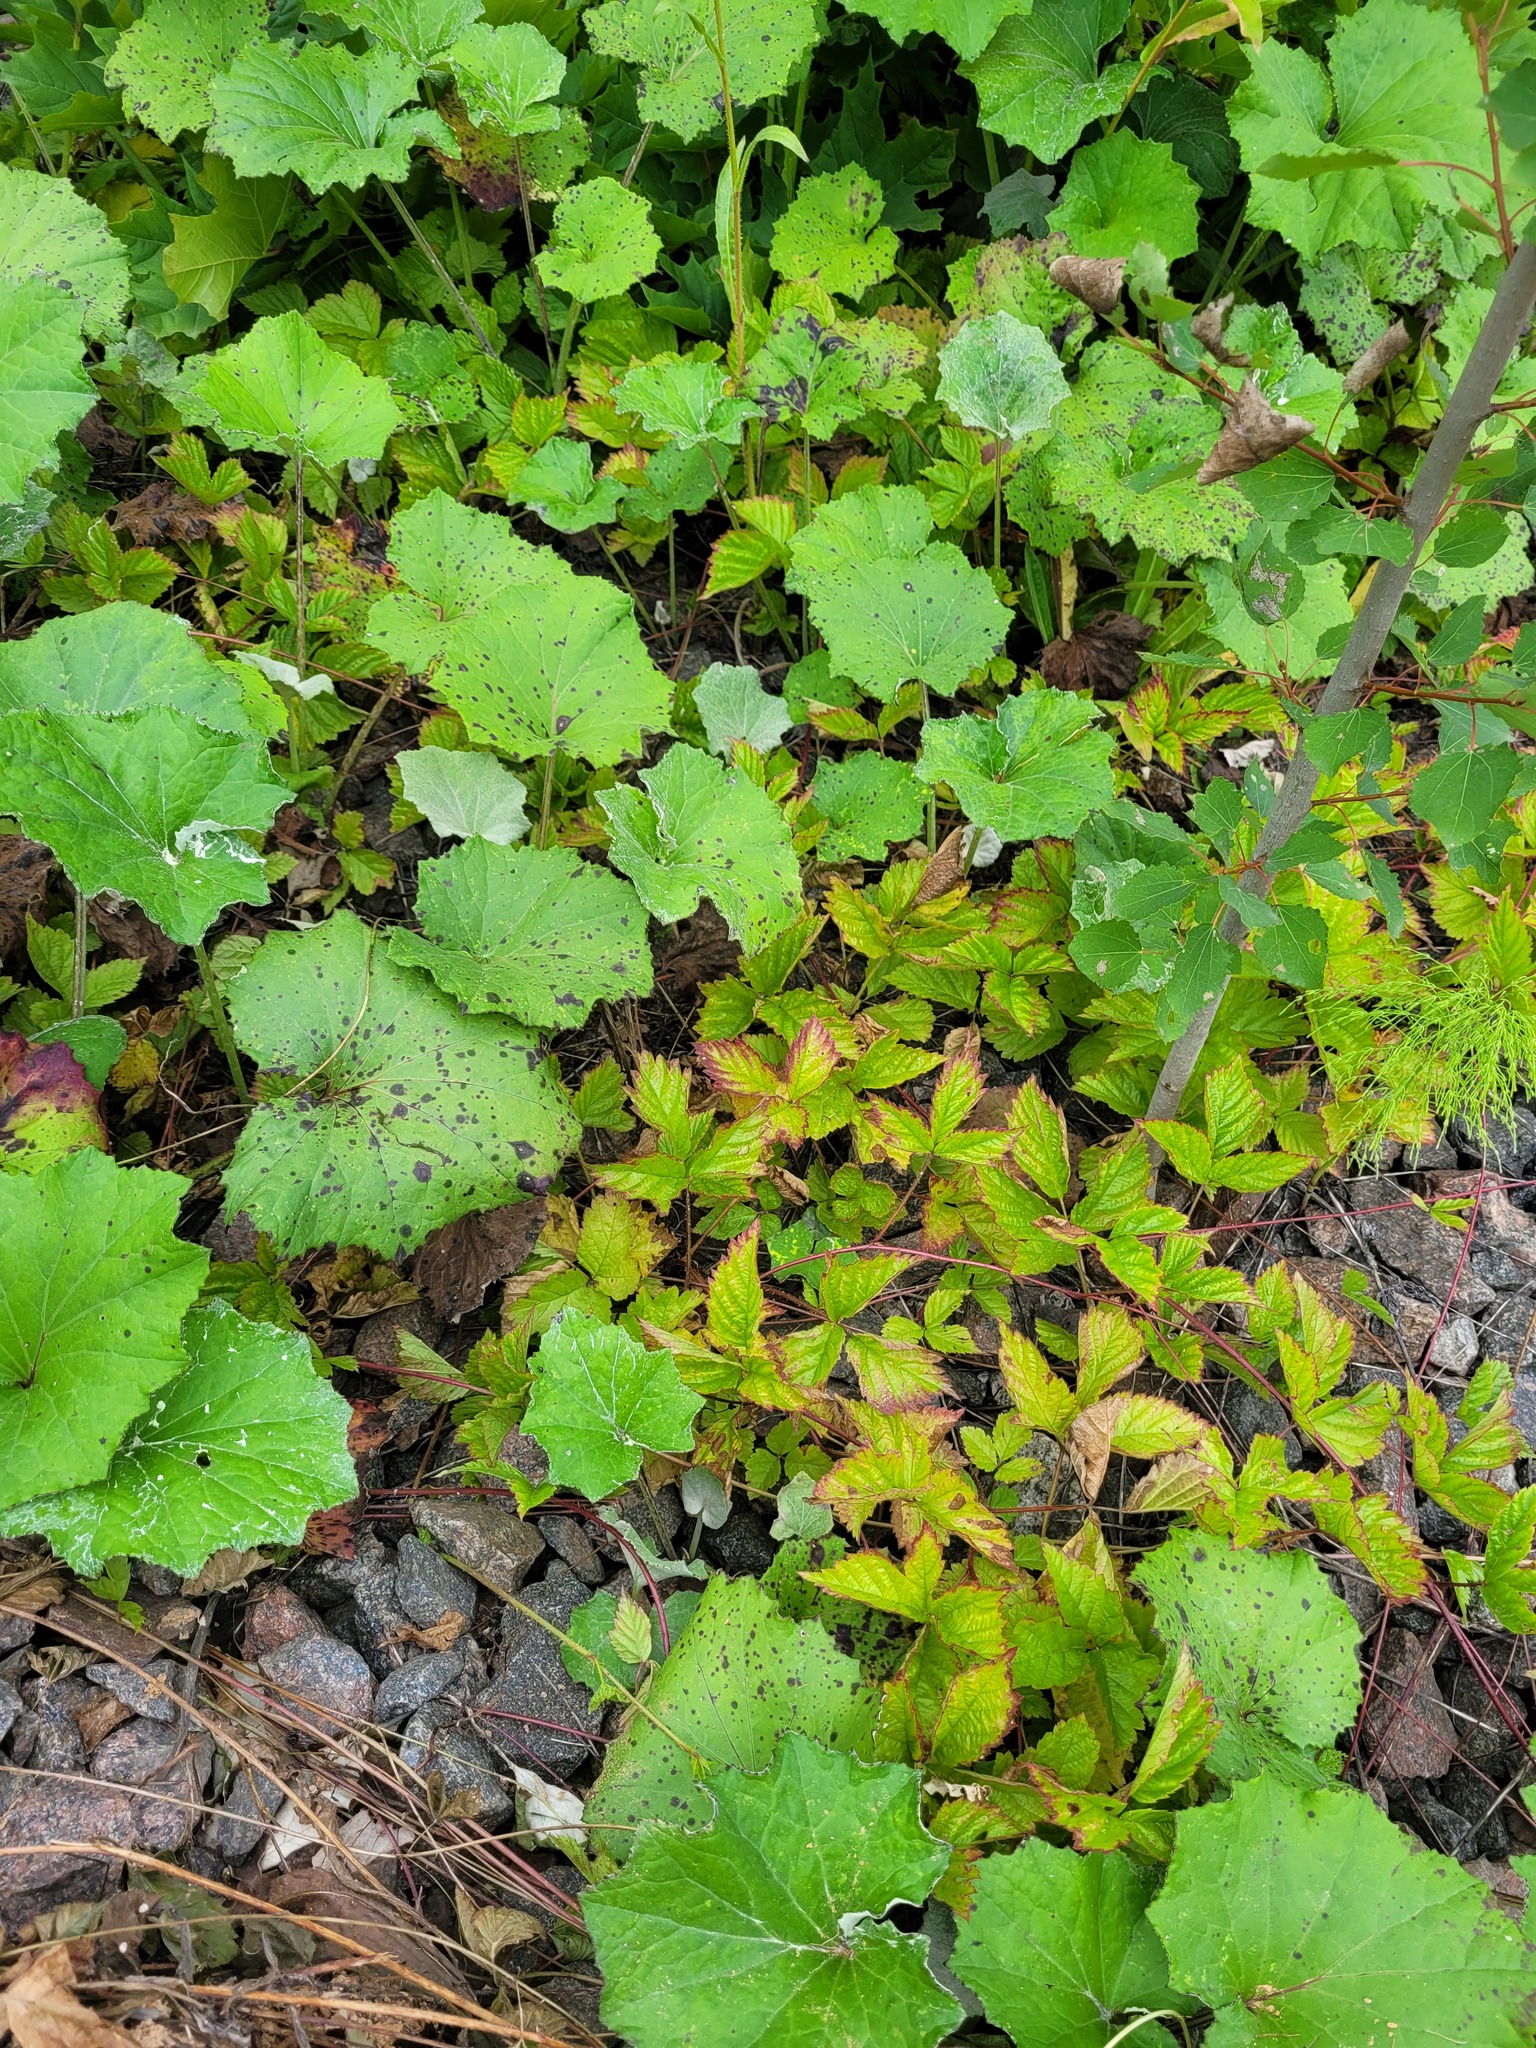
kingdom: Plantae
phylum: Tracheophyta
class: Magnoliopsida
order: Rosales
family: Rosaceae
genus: Rubus
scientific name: Rubus saxatilis
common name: Stone bramble
